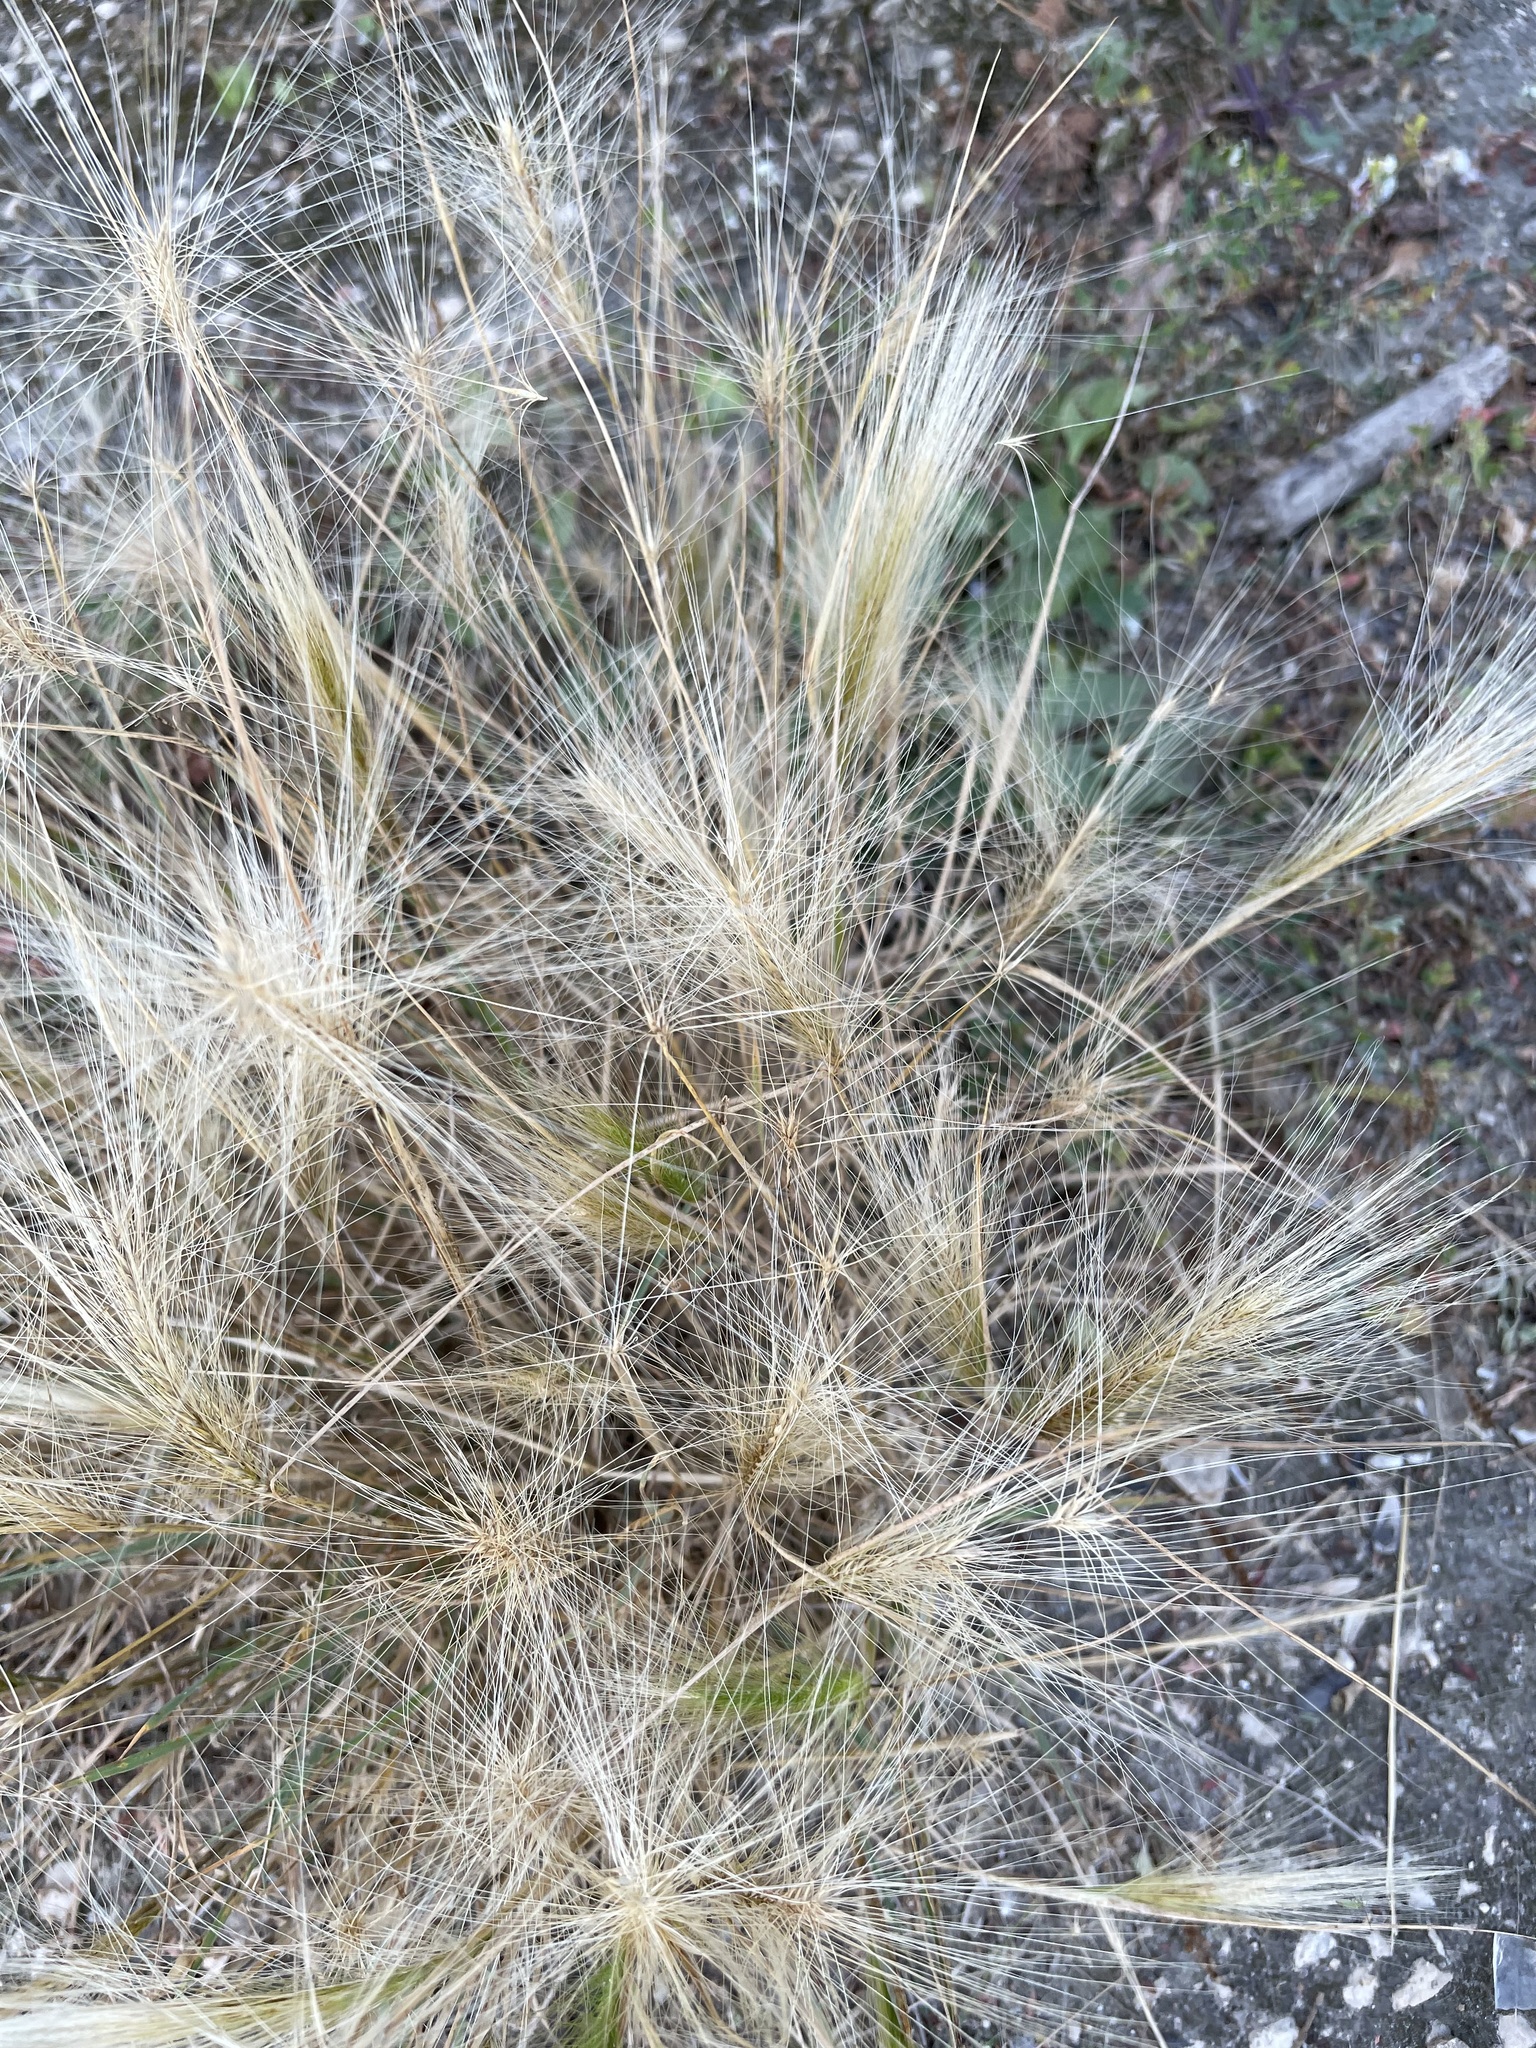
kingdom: Plantae
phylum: Tracheophyta
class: Liliopsida
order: Poales
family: Poaceae
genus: Hordeum
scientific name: Hordeum jubatum
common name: Foxtail barley
